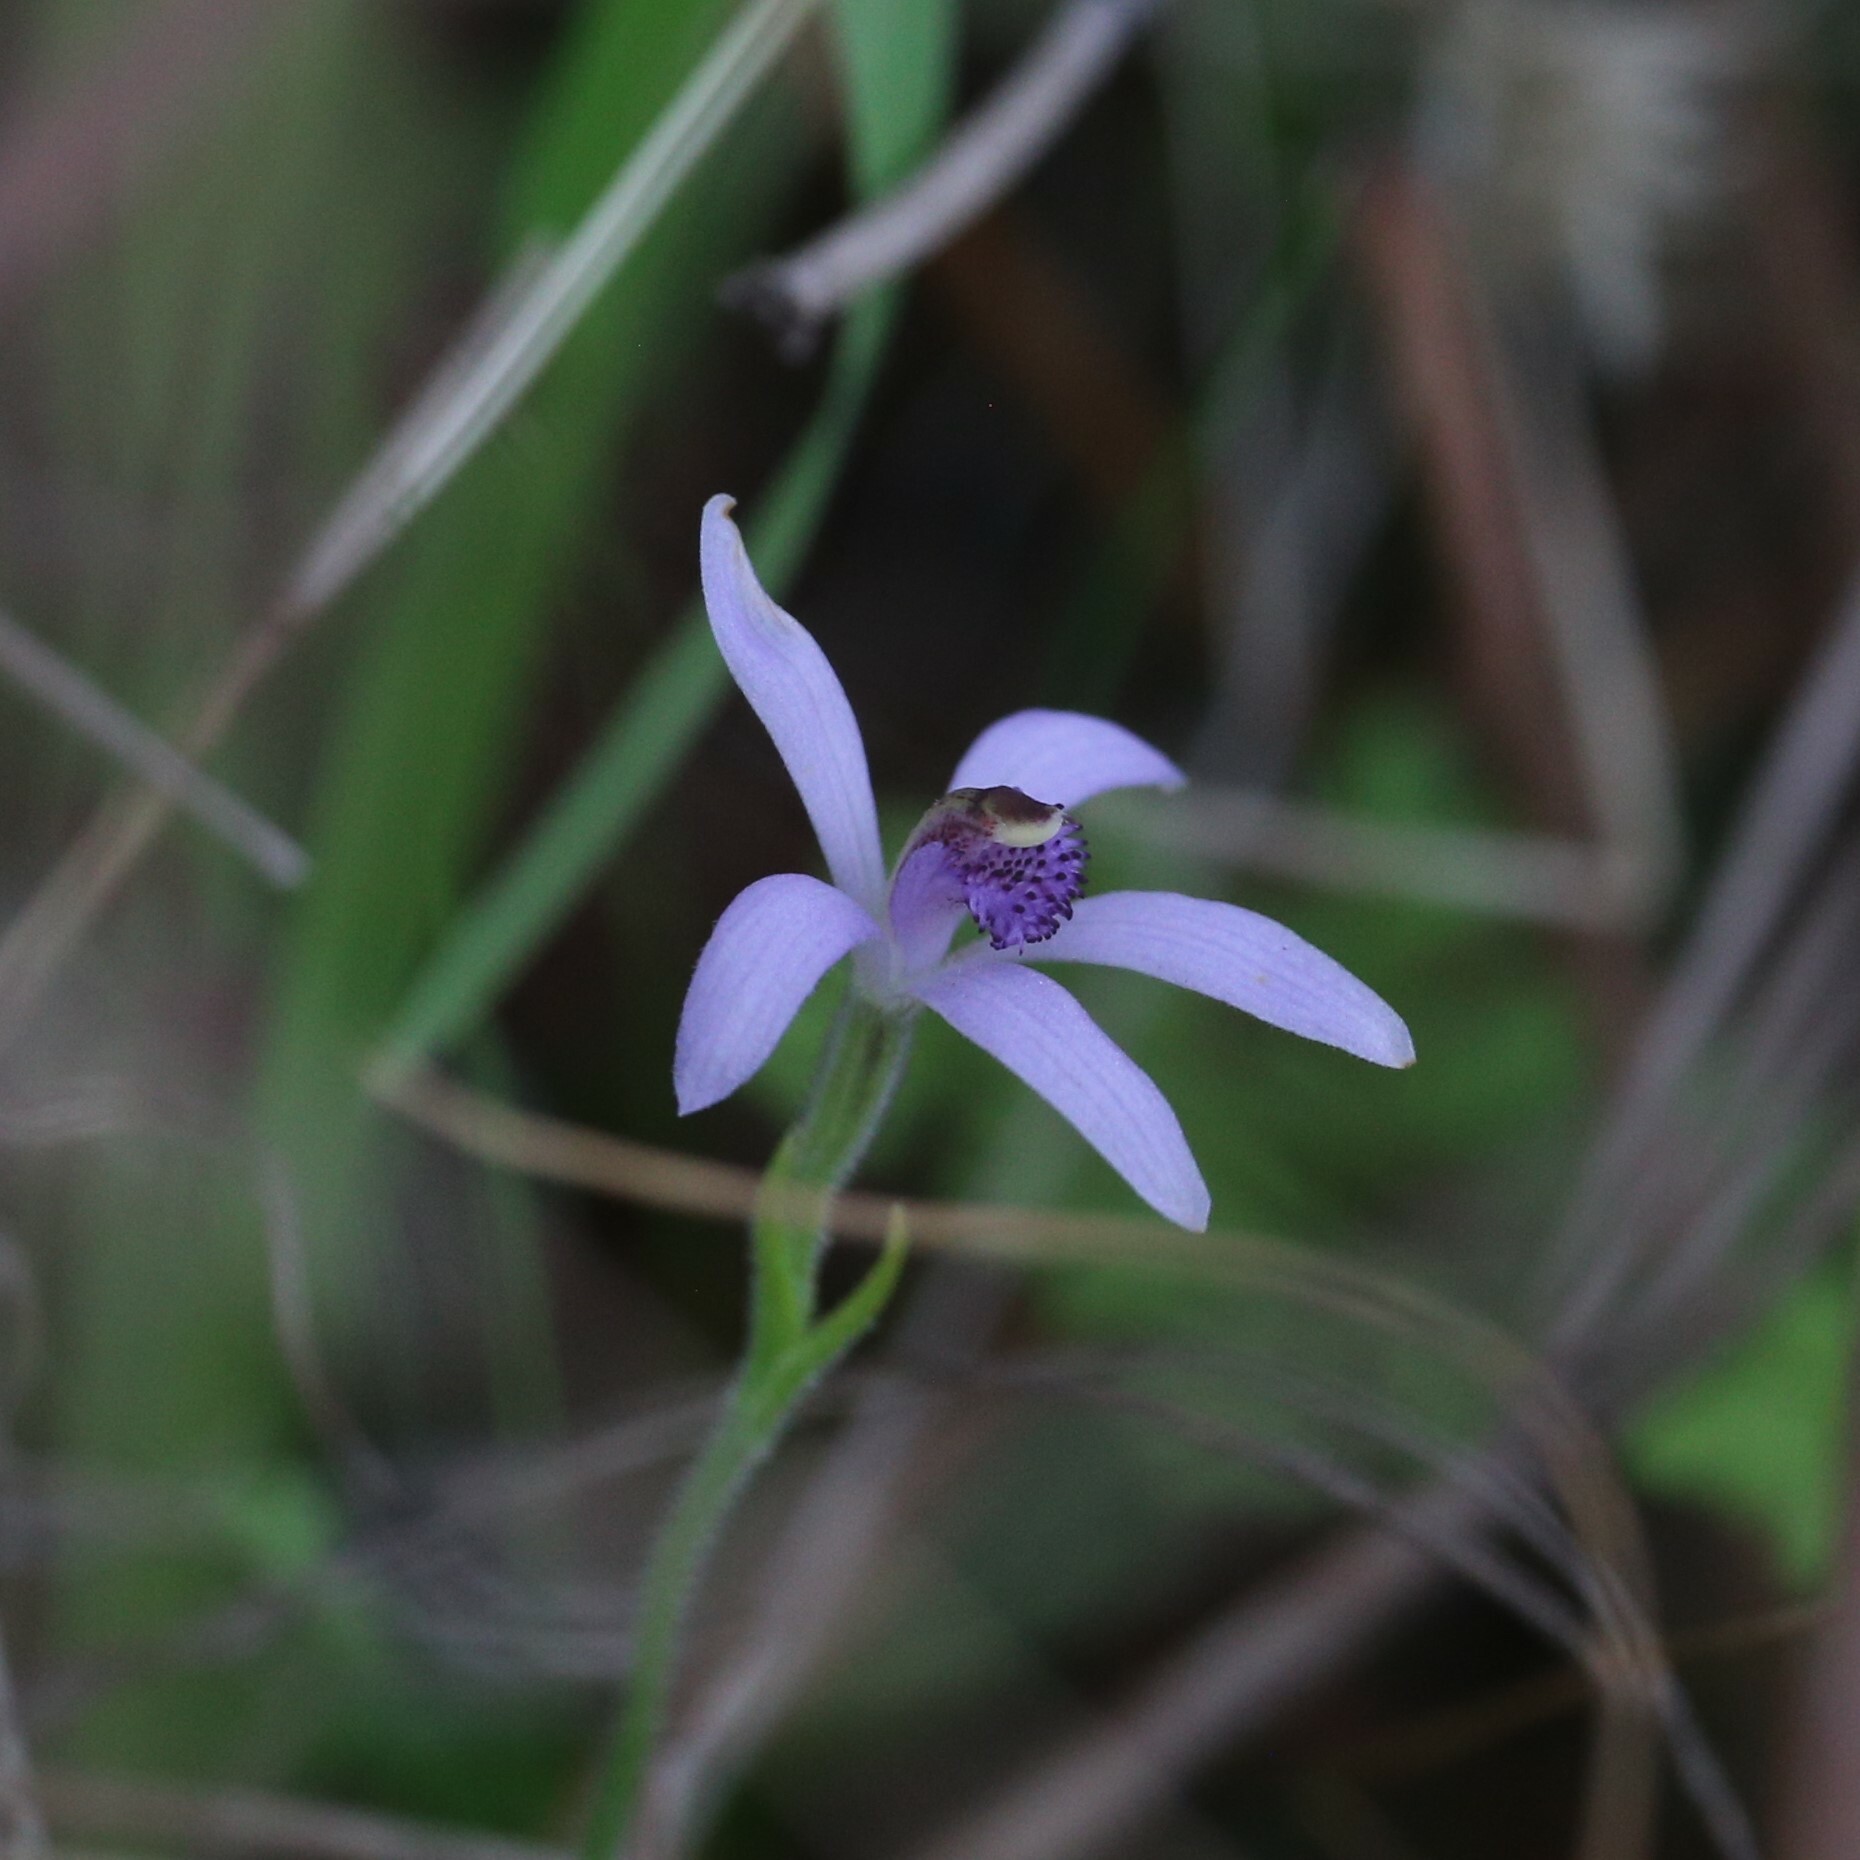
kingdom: Plantae
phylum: Tracheophyta
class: Liliopsida
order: Asparagales
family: Orchidaceae
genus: Pheladenia
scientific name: Pheladenia deformis
